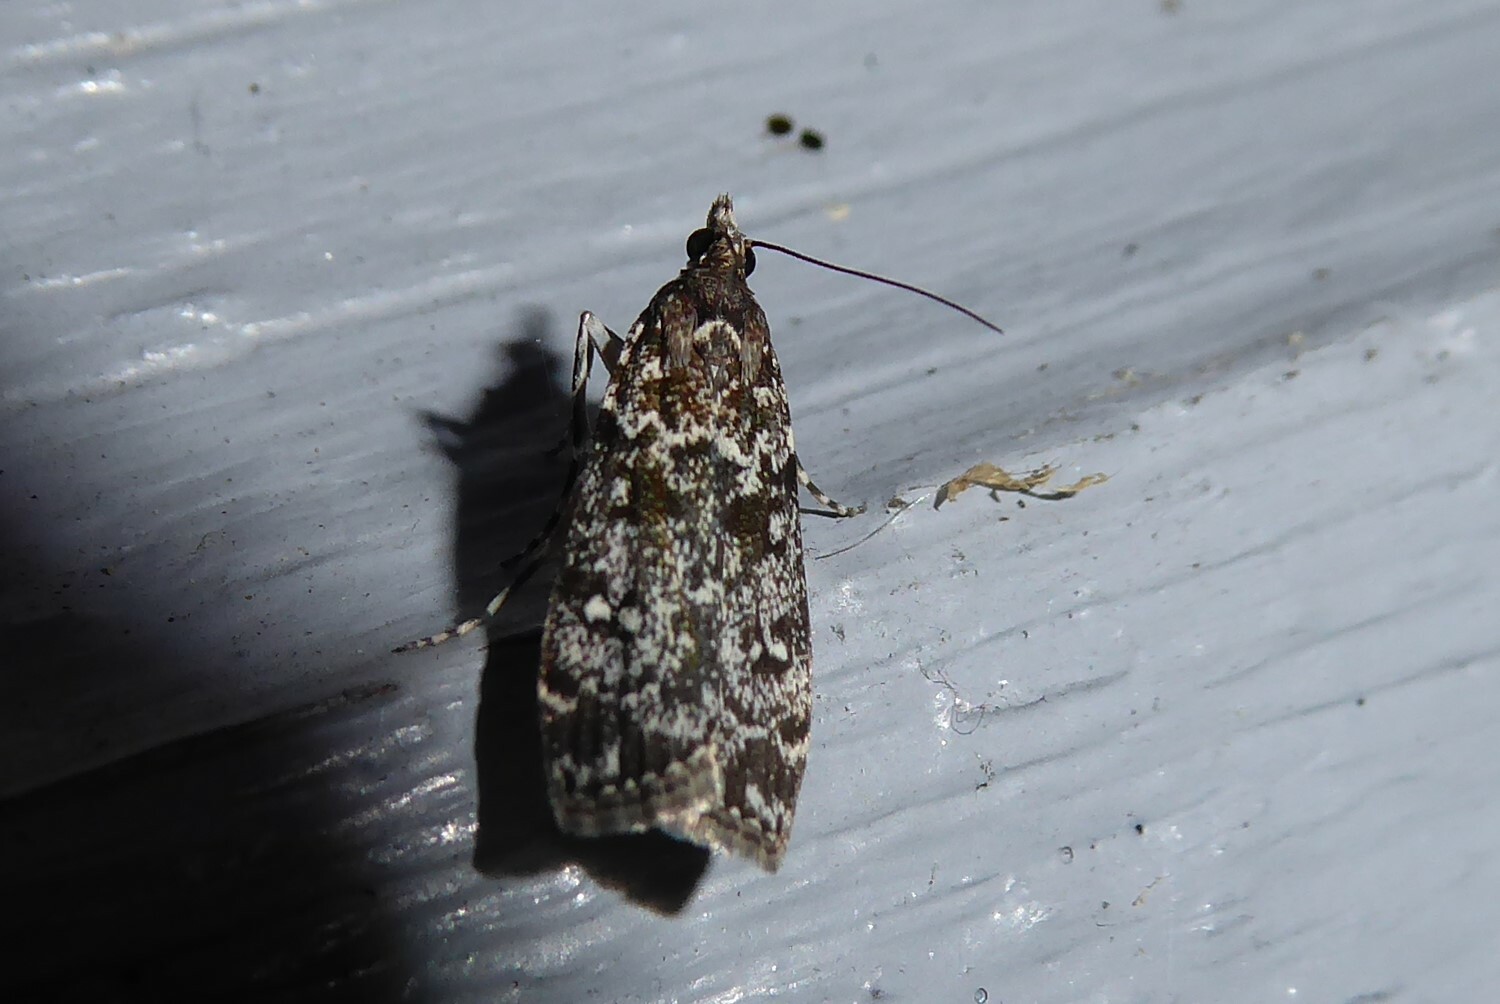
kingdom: Animalia
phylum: Arthropoda
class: Insecta
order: Lepidoptera
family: Crambidae
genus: Eudonia
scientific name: Eudonia philerga
